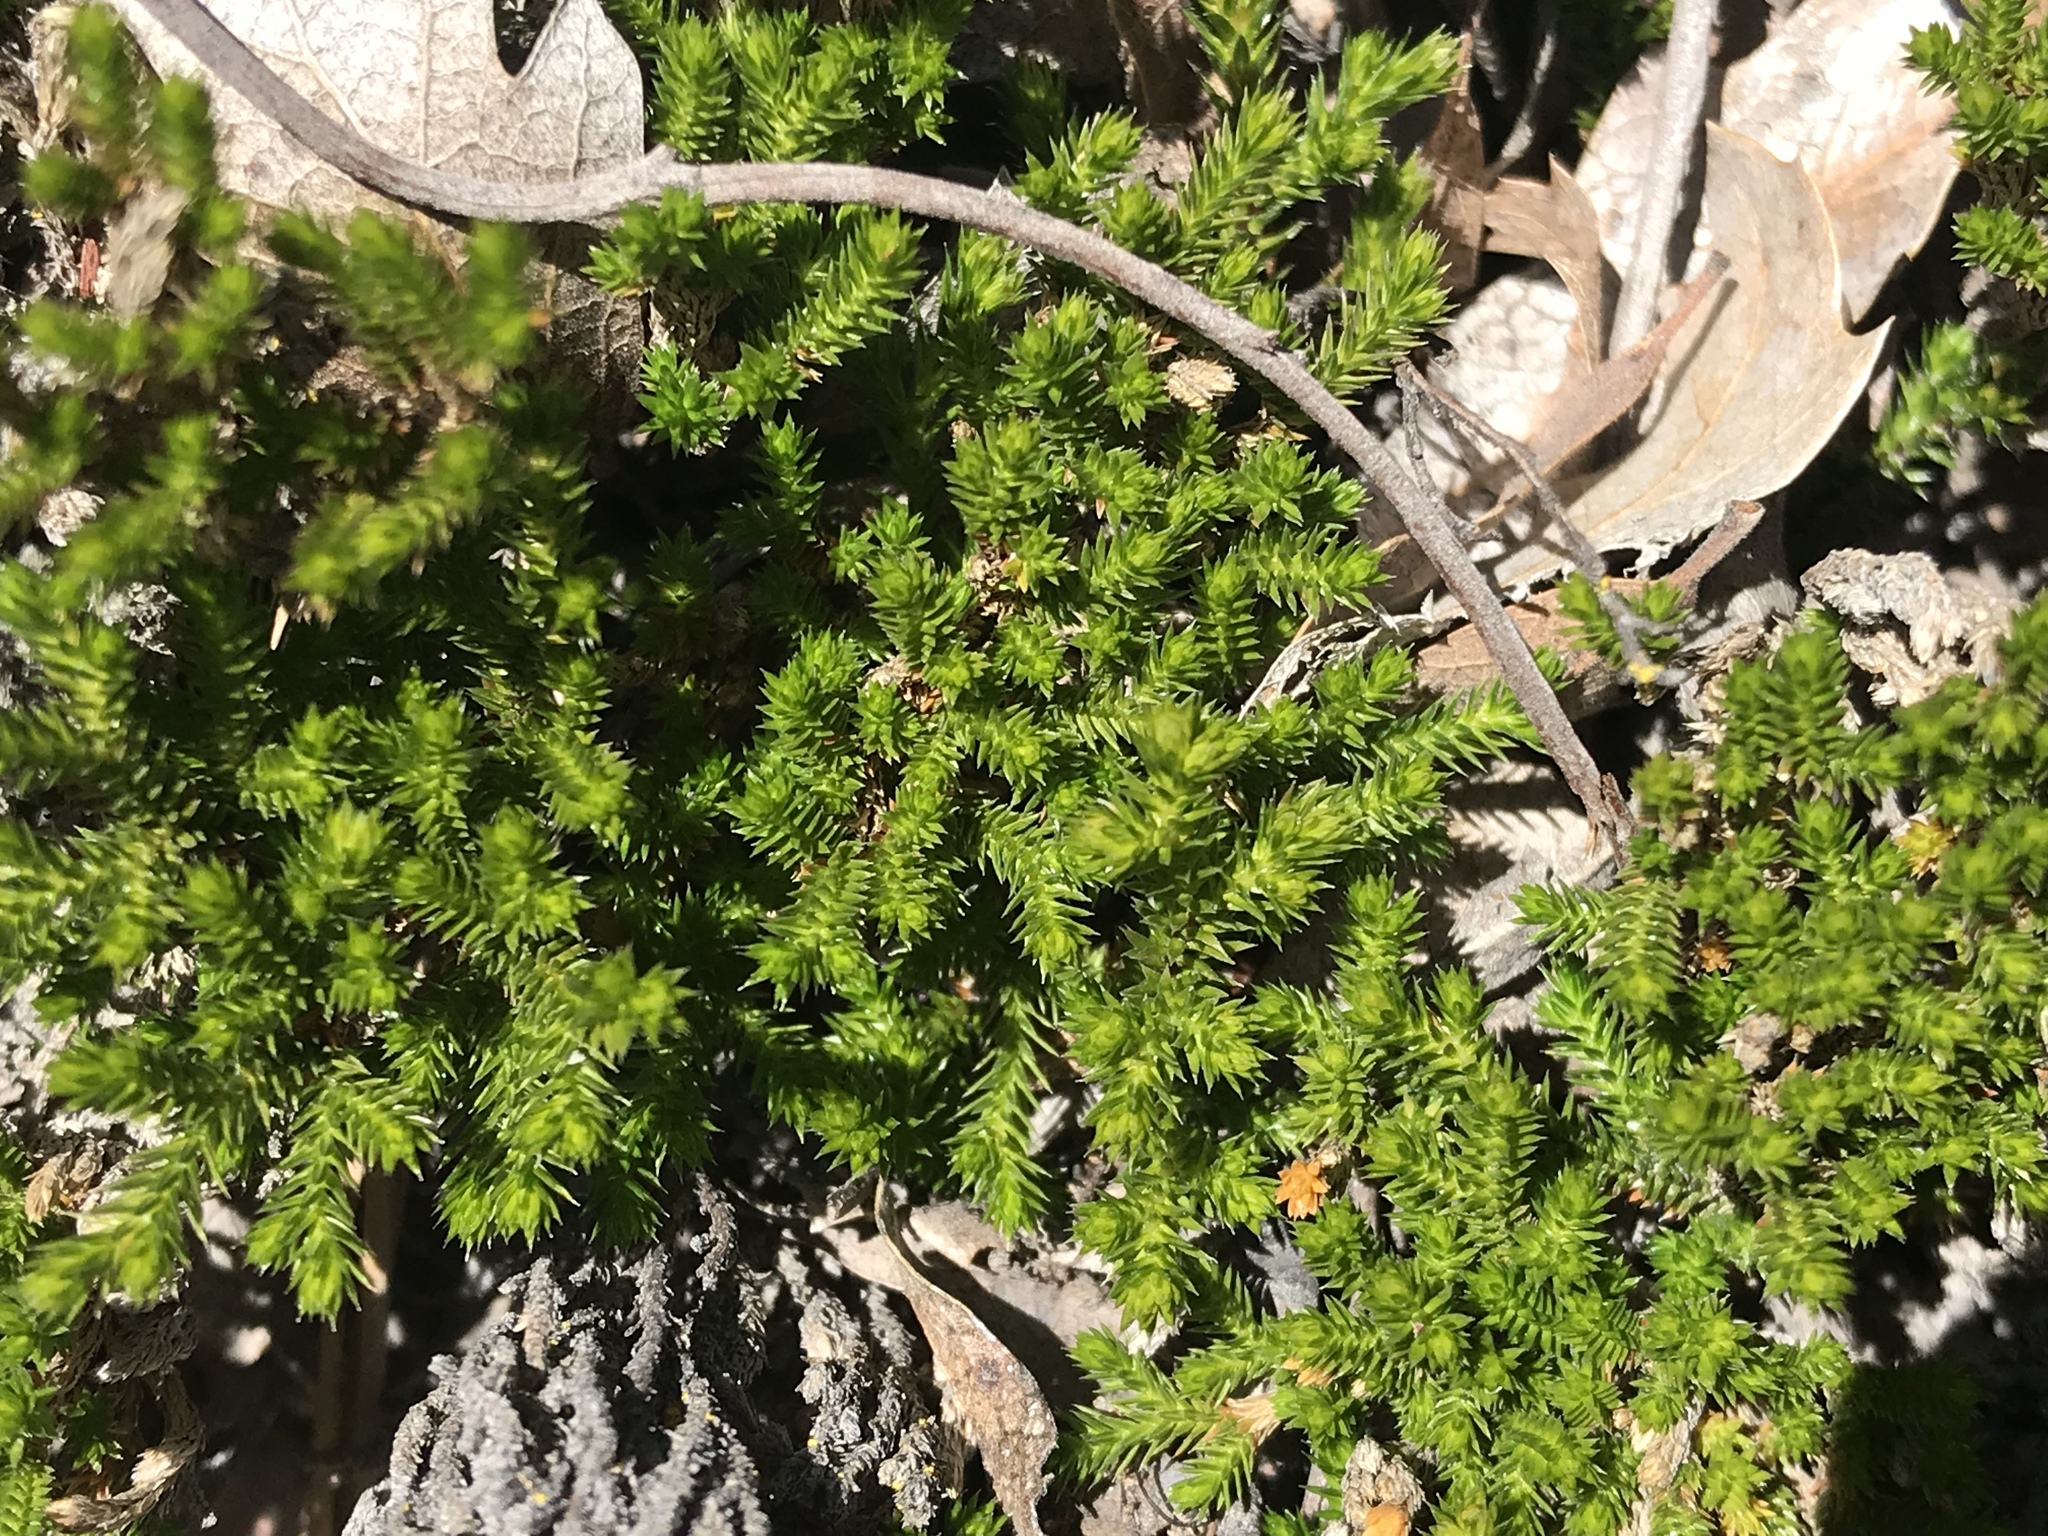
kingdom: Plantae
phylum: Tracheophyta
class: Lycopodiopsida
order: Selaginellales
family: Selaginellaceae
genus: Selaginella
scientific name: Selaginella bigelovii
